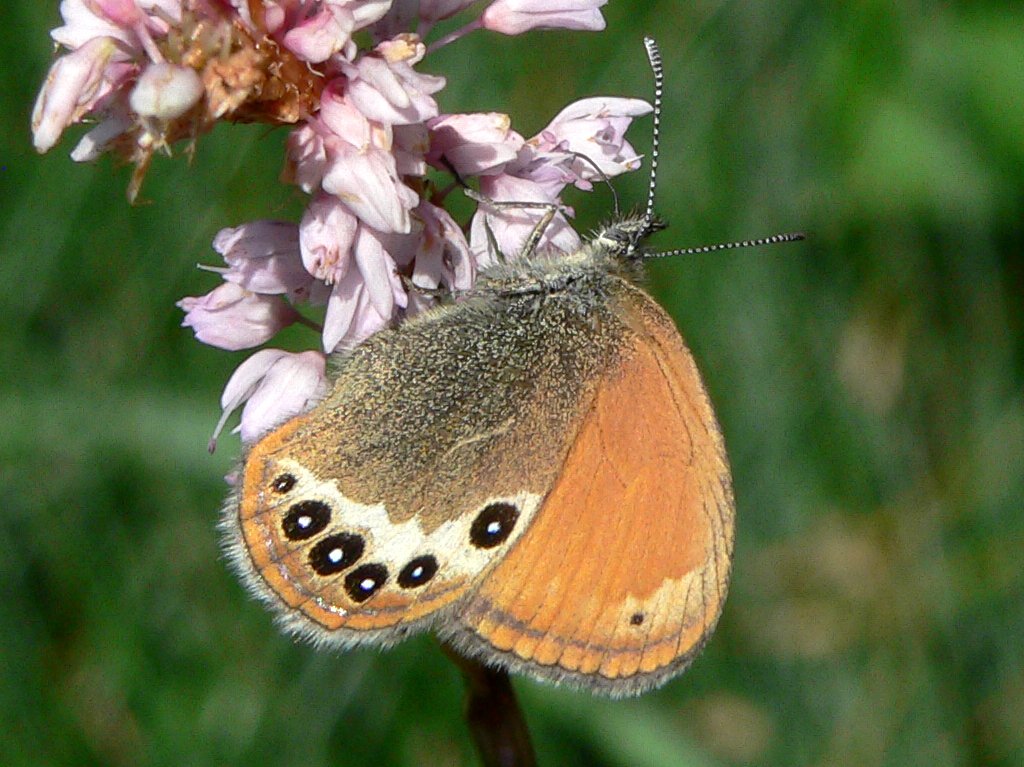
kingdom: Animalia
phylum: Arthropoda
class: Insecta
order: Lepidoptera
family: Nymphalidae
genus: Coenonympha
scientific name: Coenonympha
